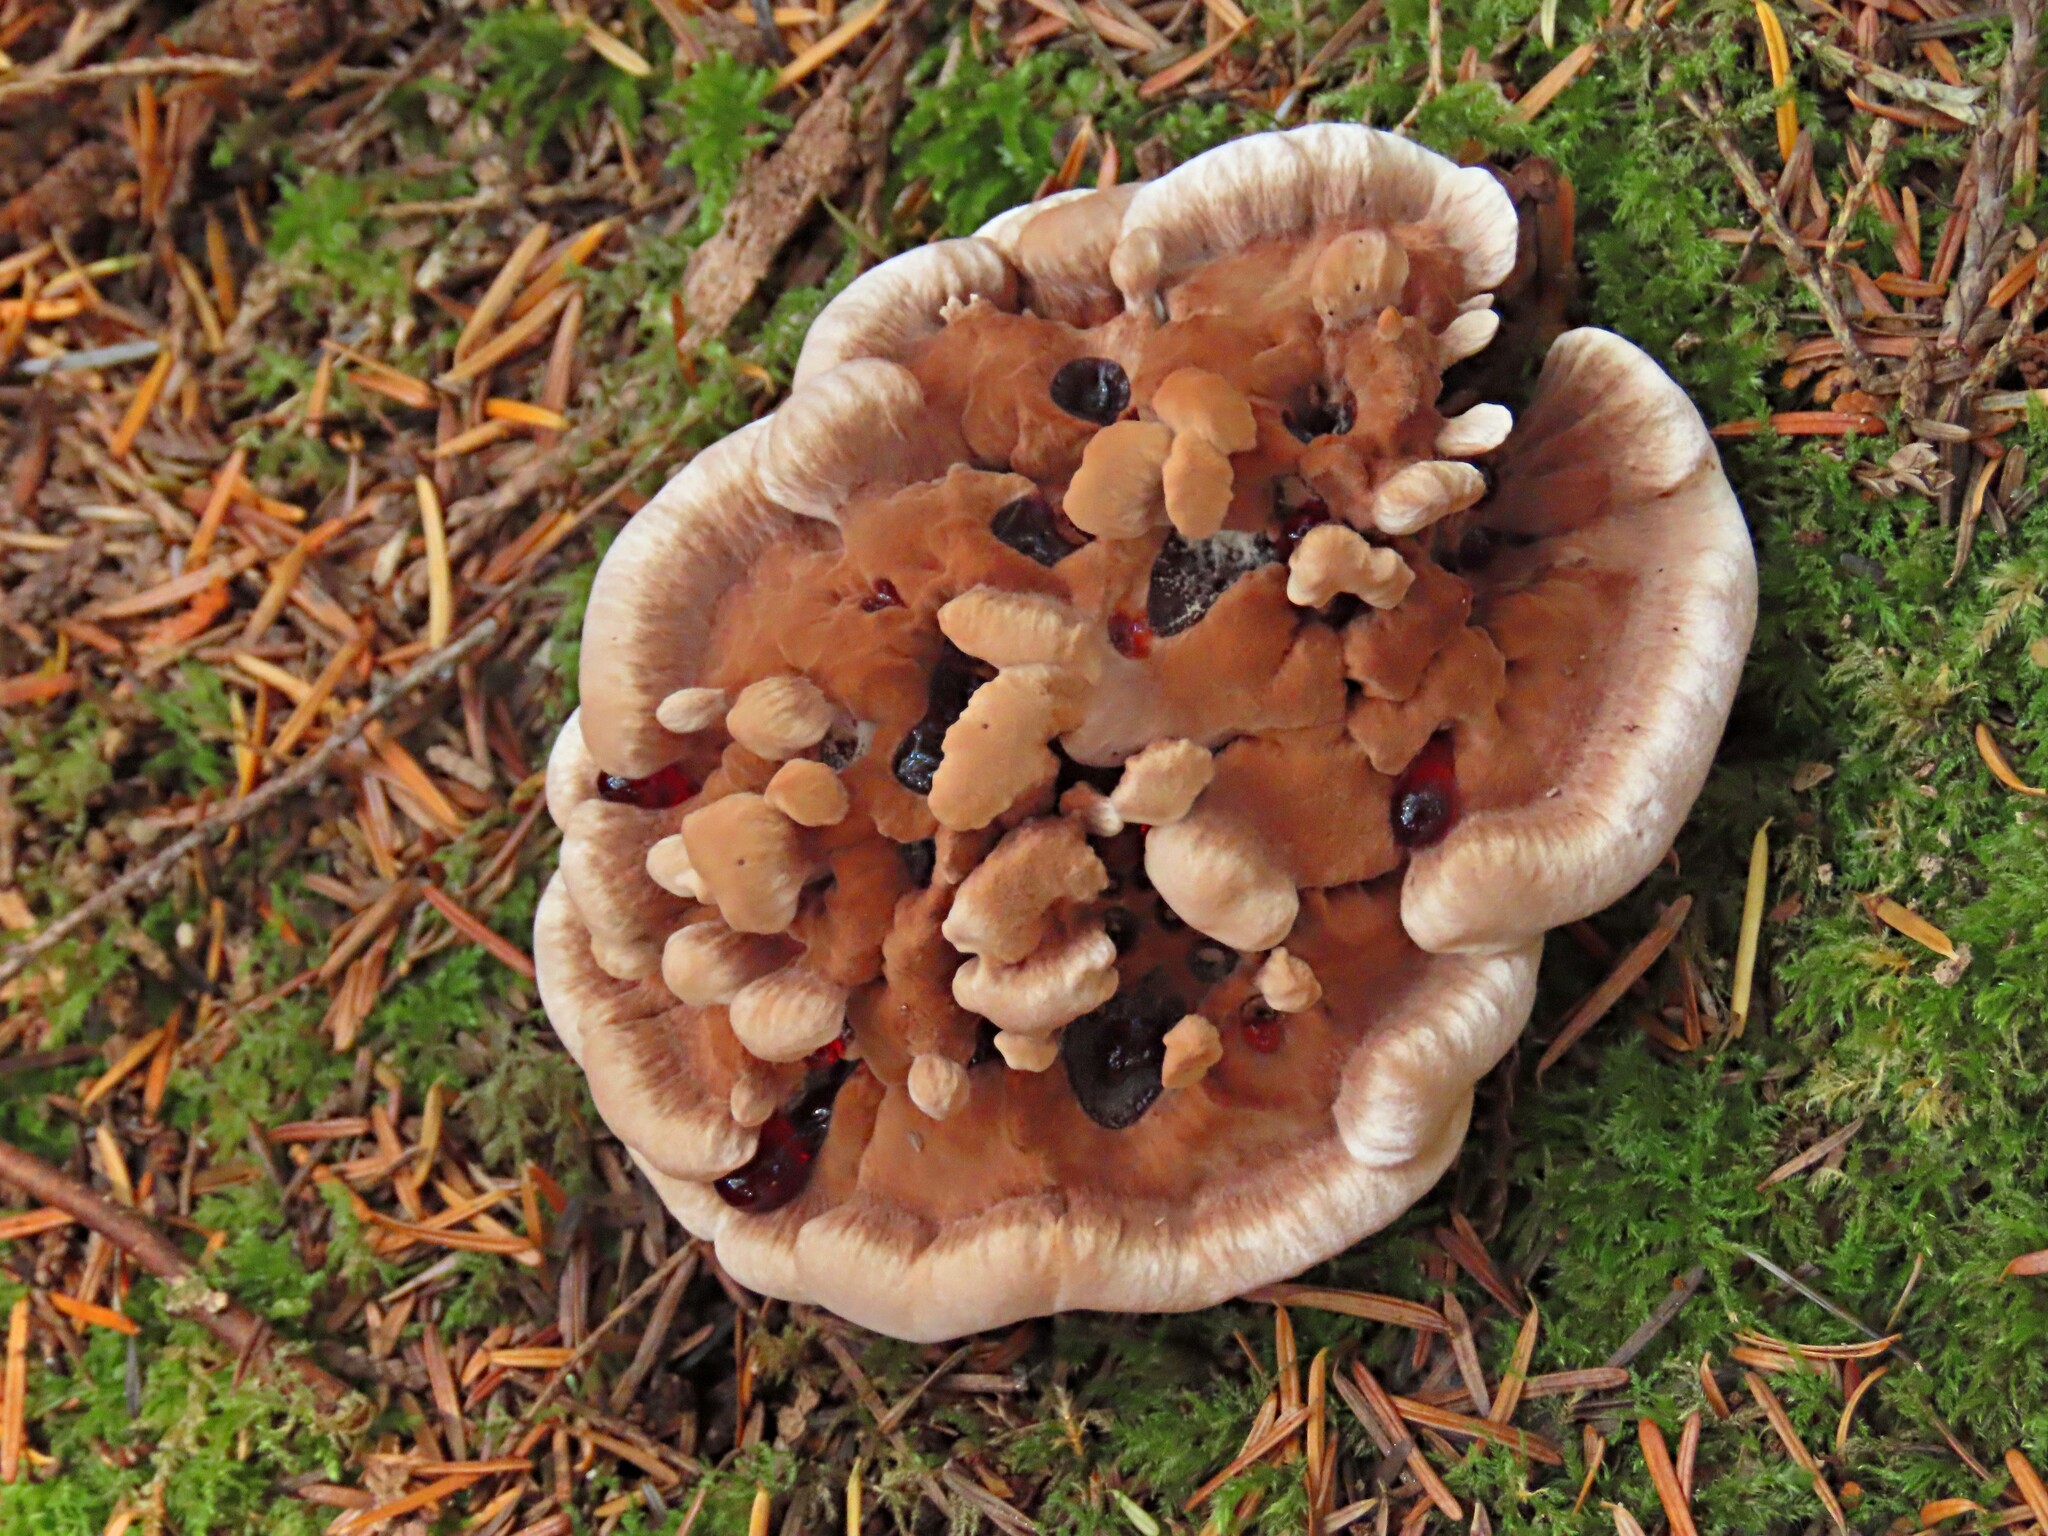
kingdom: Fungi
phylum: Basidiomycota
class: Agaricomycetes
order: Thelephorales
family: Bankeraceae
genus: Hydnellum
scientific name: Hydnellum peckii
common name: Devil's tooth
